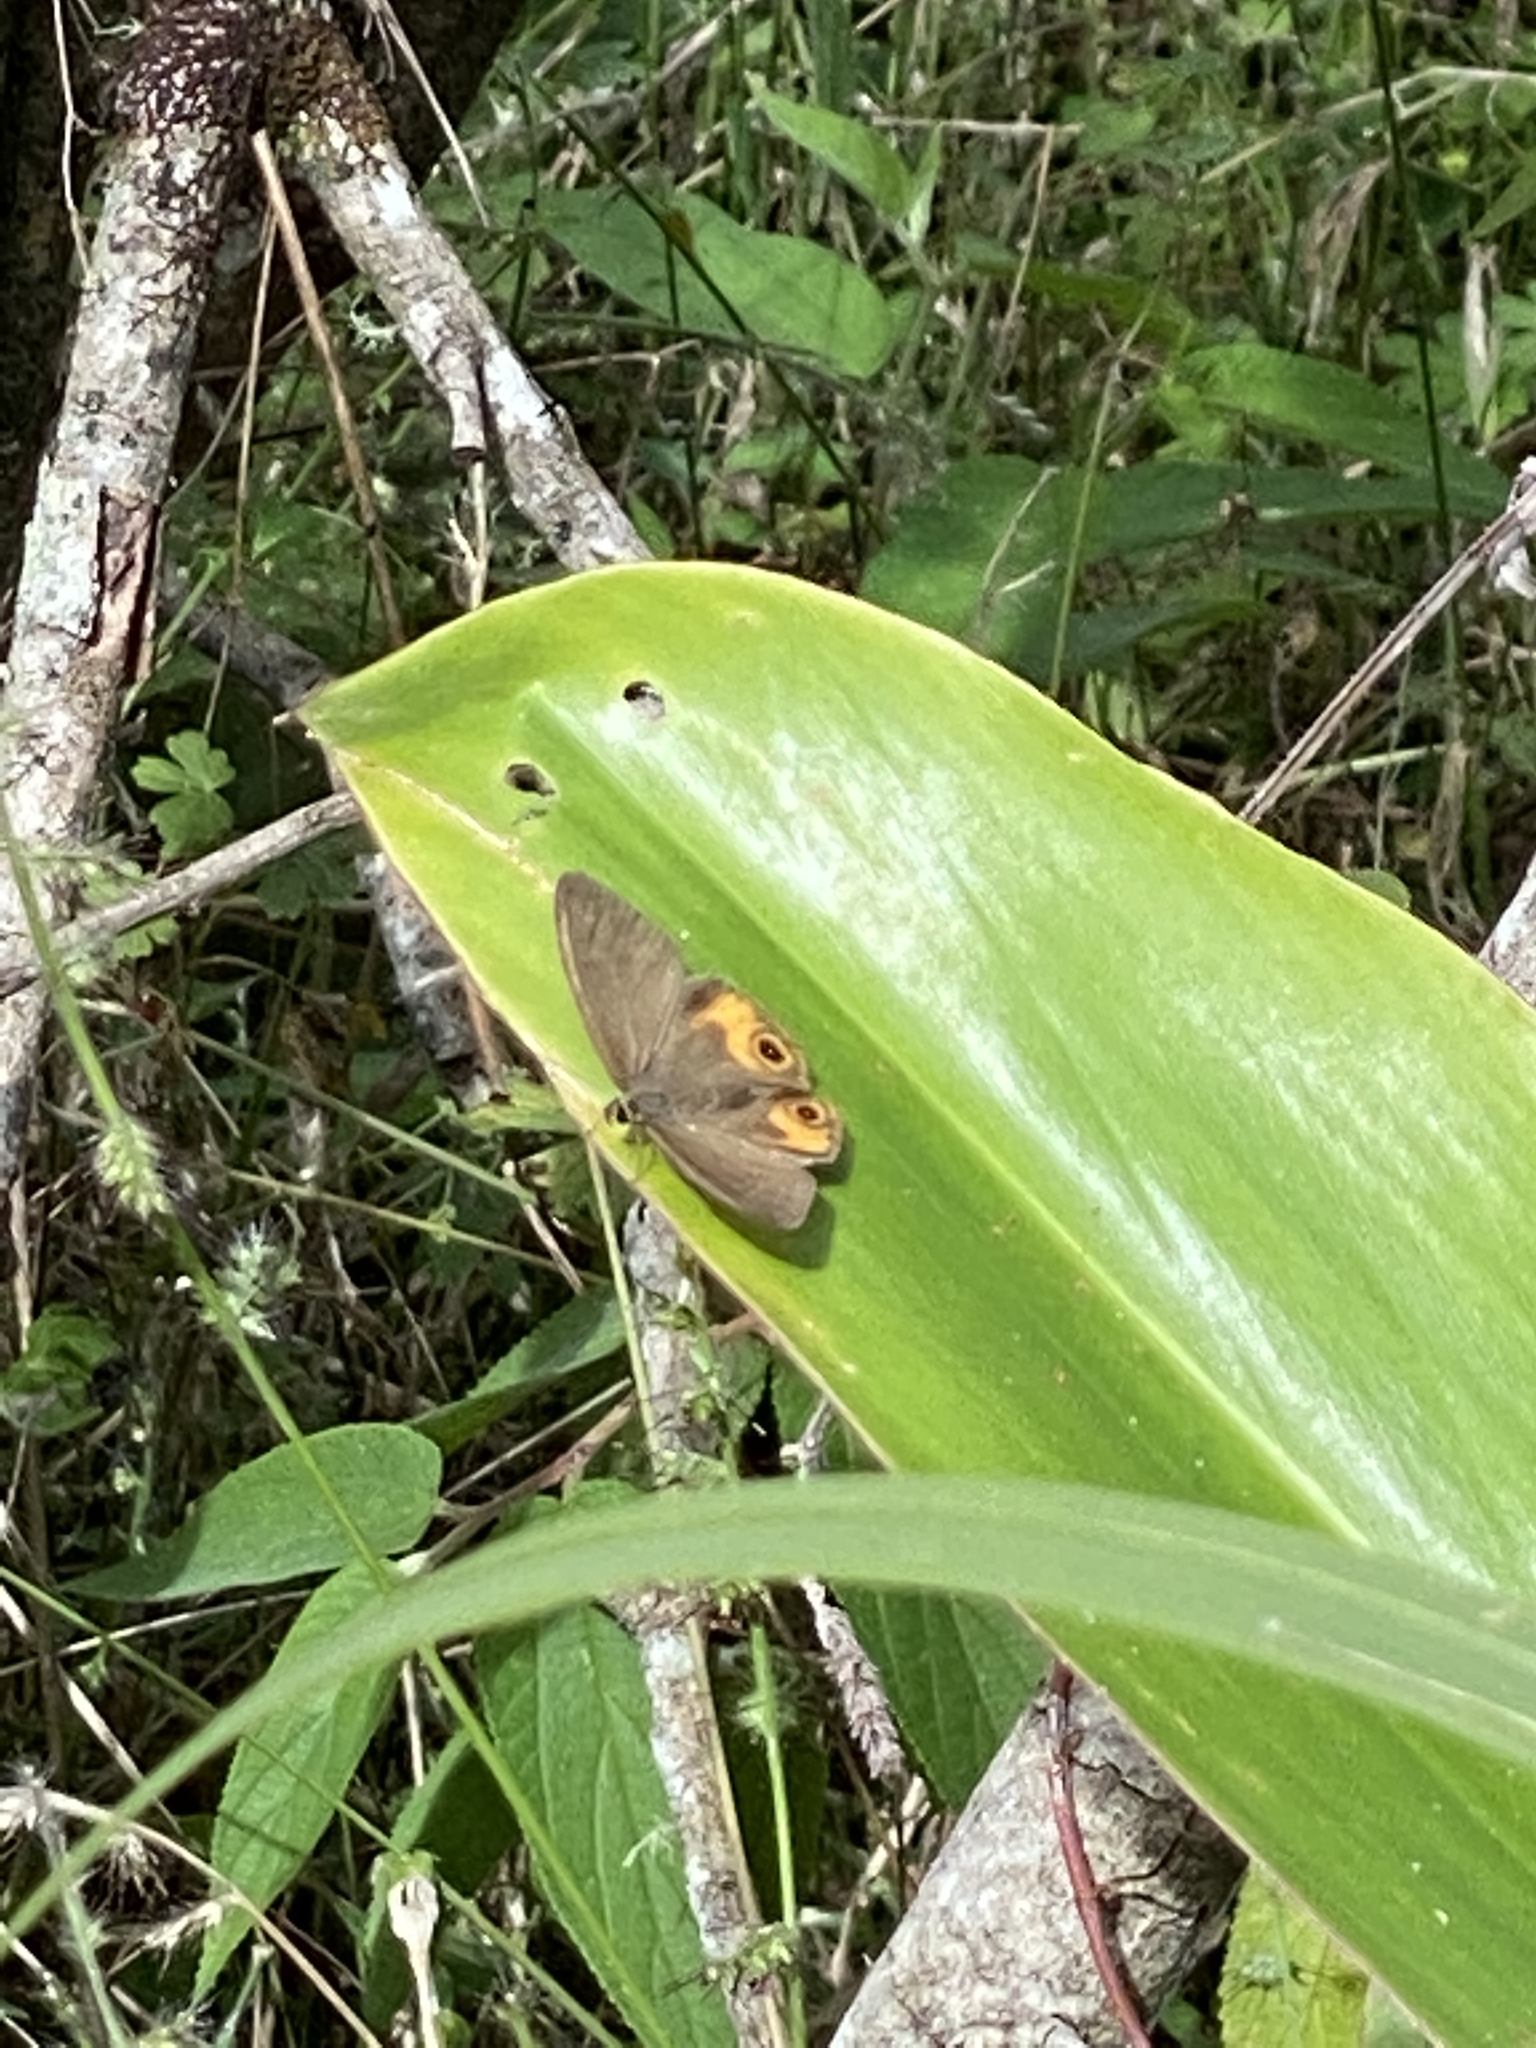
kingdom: Animalia
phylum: Arthropoda
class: Insecta
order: Lepidoptera
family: Nymphalidae
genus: Hypocysta
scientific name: Hypocysta metirius
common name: Brown ringlet
